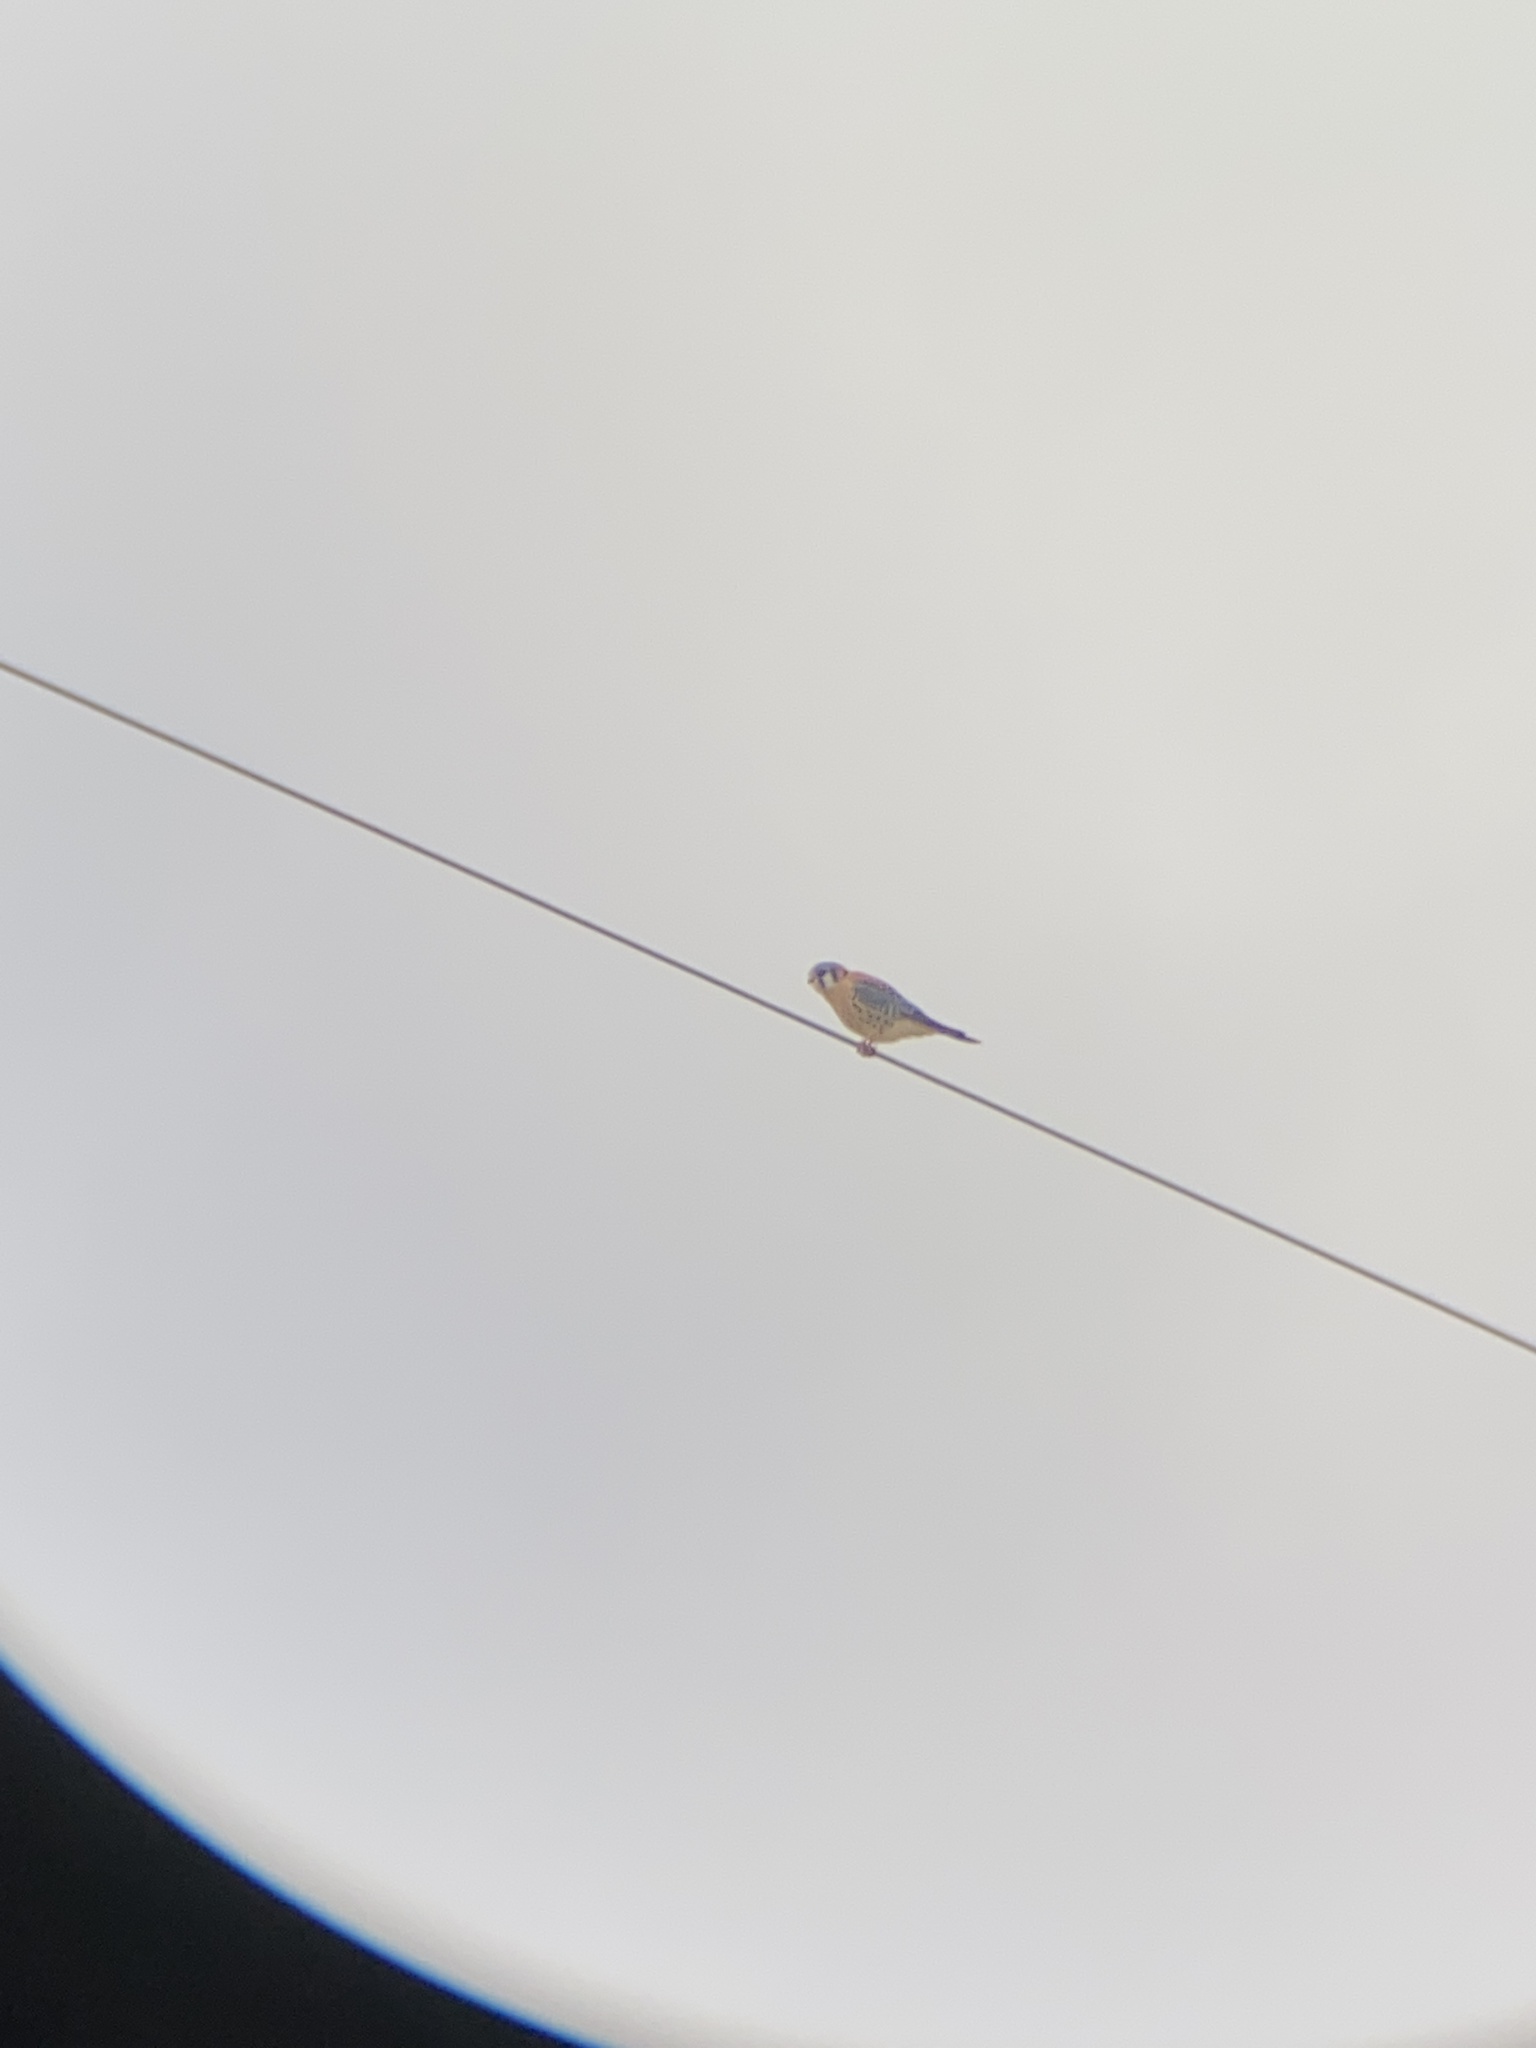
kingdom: Animalia
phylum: Chordata
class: Aves
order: Falconiformes
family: Falconidae
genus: Falco
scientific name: Falco sparverius
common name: American kestrel
